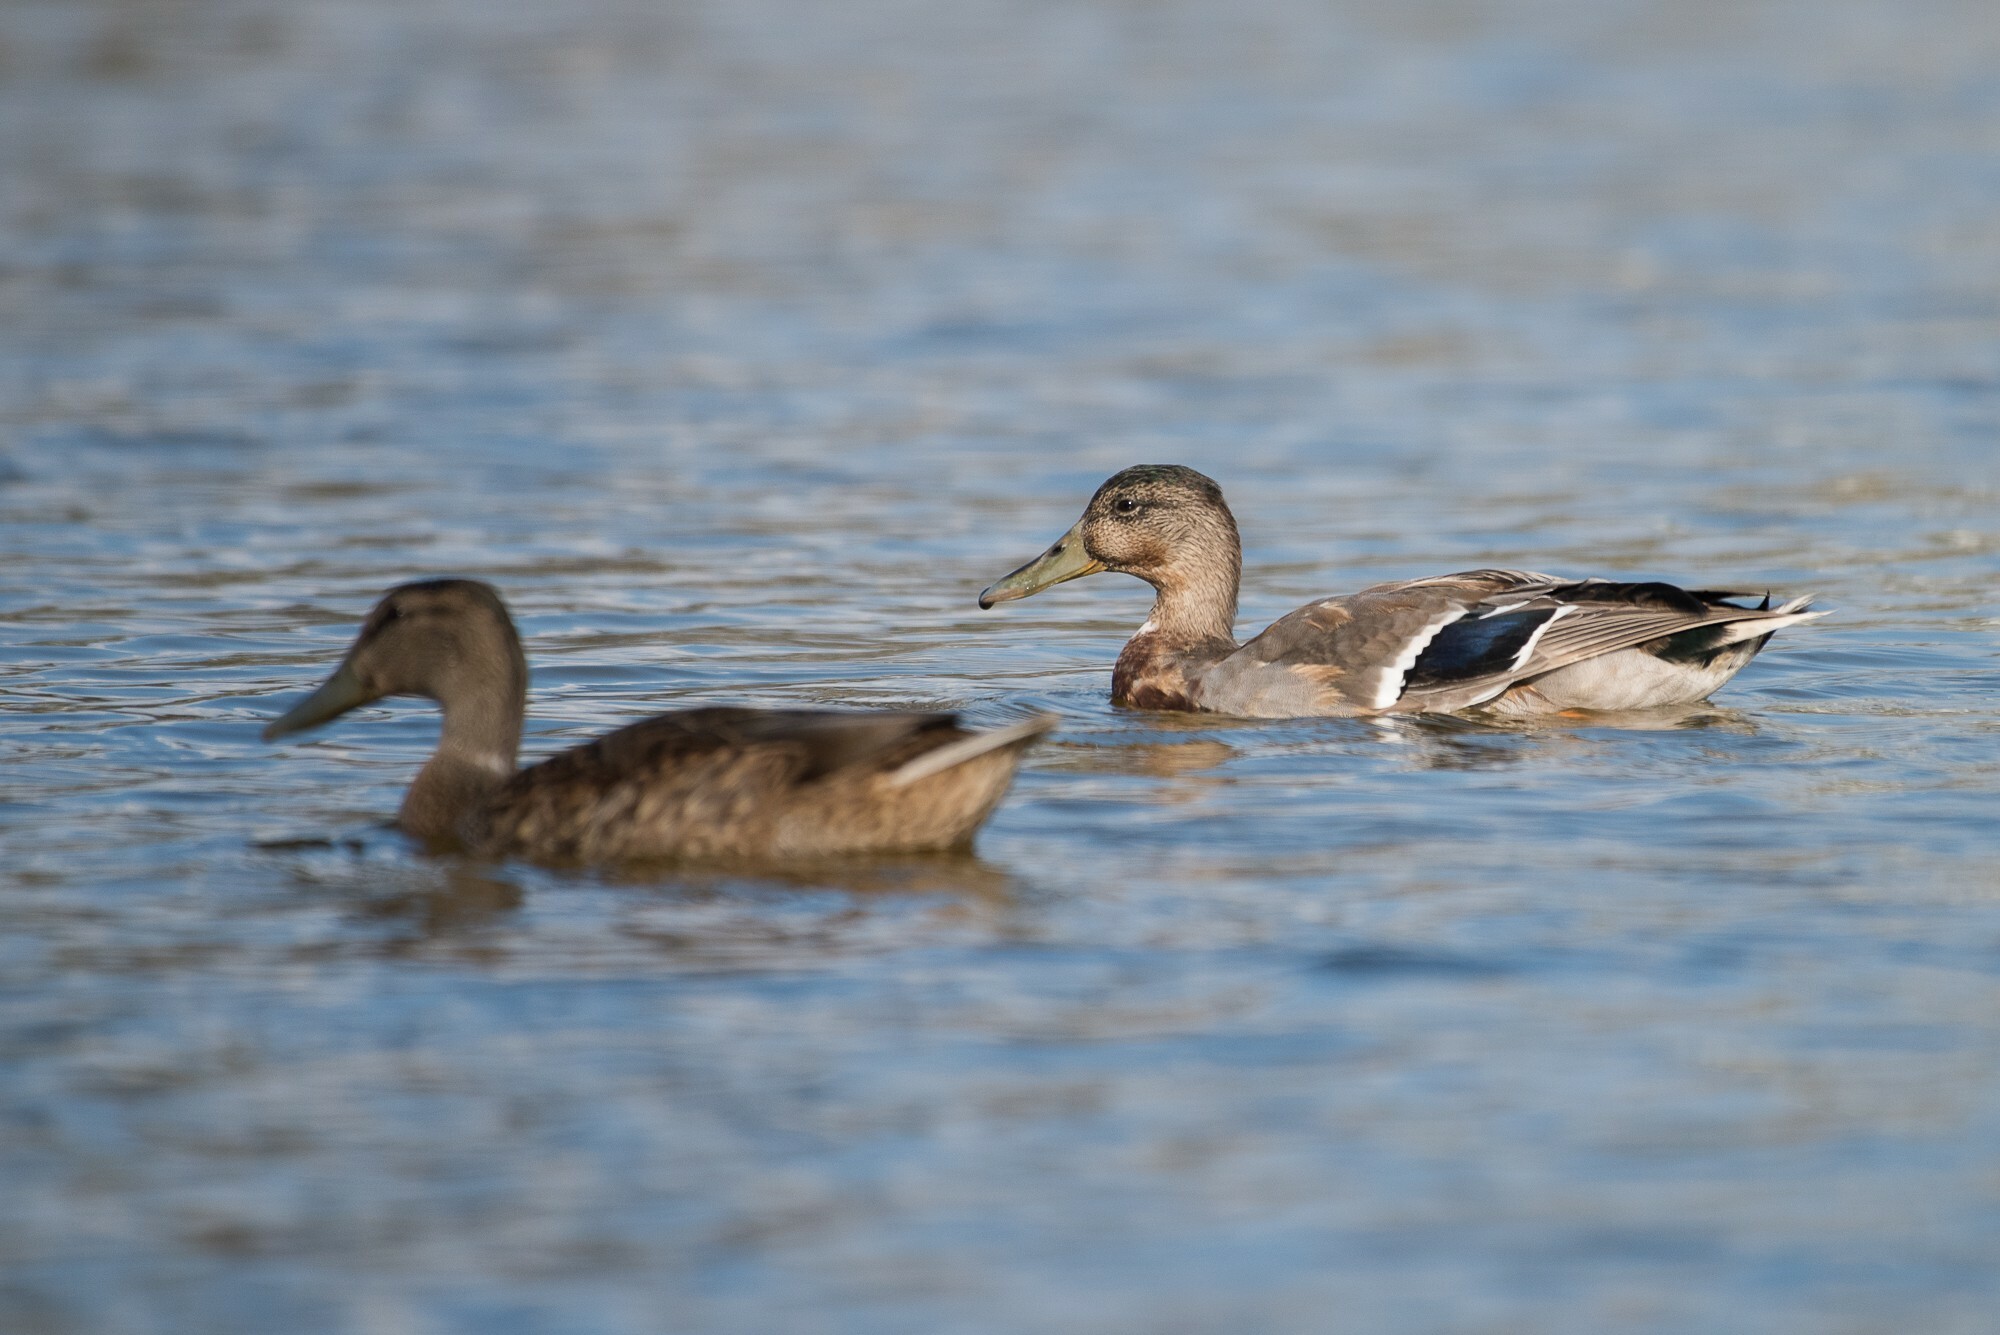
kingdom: Animalia
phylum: Chordata
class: Aves
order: Anseriformes
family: Anatidae
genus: Anas
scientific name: Anas platyrhynchos
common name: Mallard
